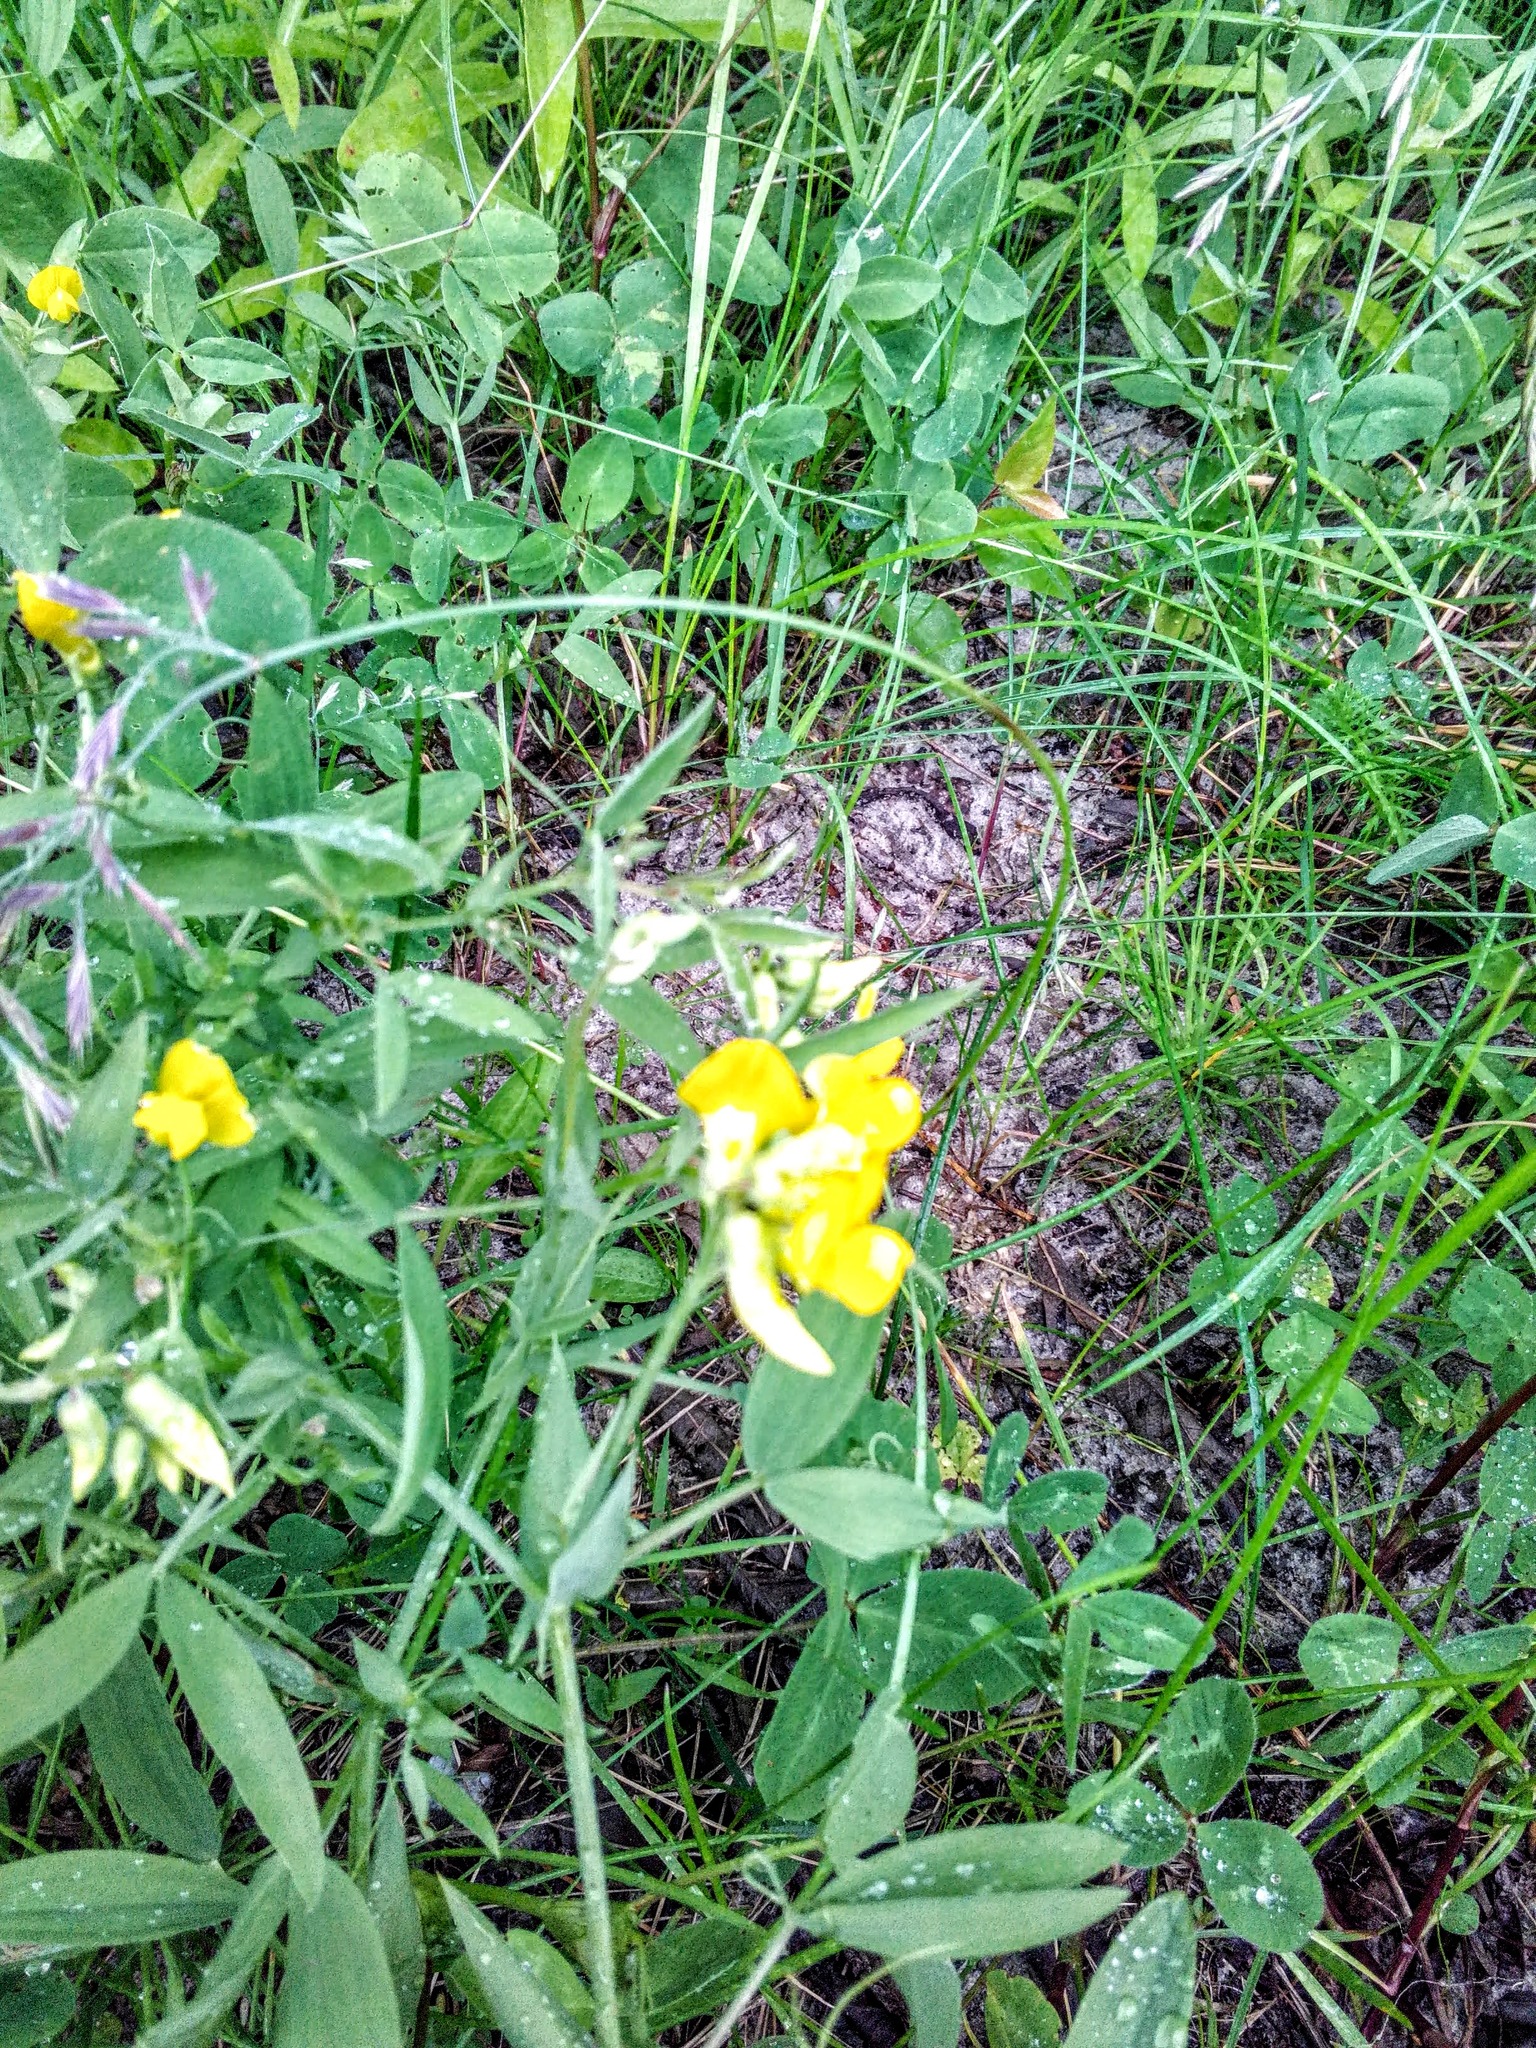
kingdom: Plantae
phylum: Tracheophyta
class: Magnoliopsida
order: Fabales
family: Fabaceae
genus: Lathyrus
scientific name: Lathyrus pratensis
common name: Meadow vetchling
